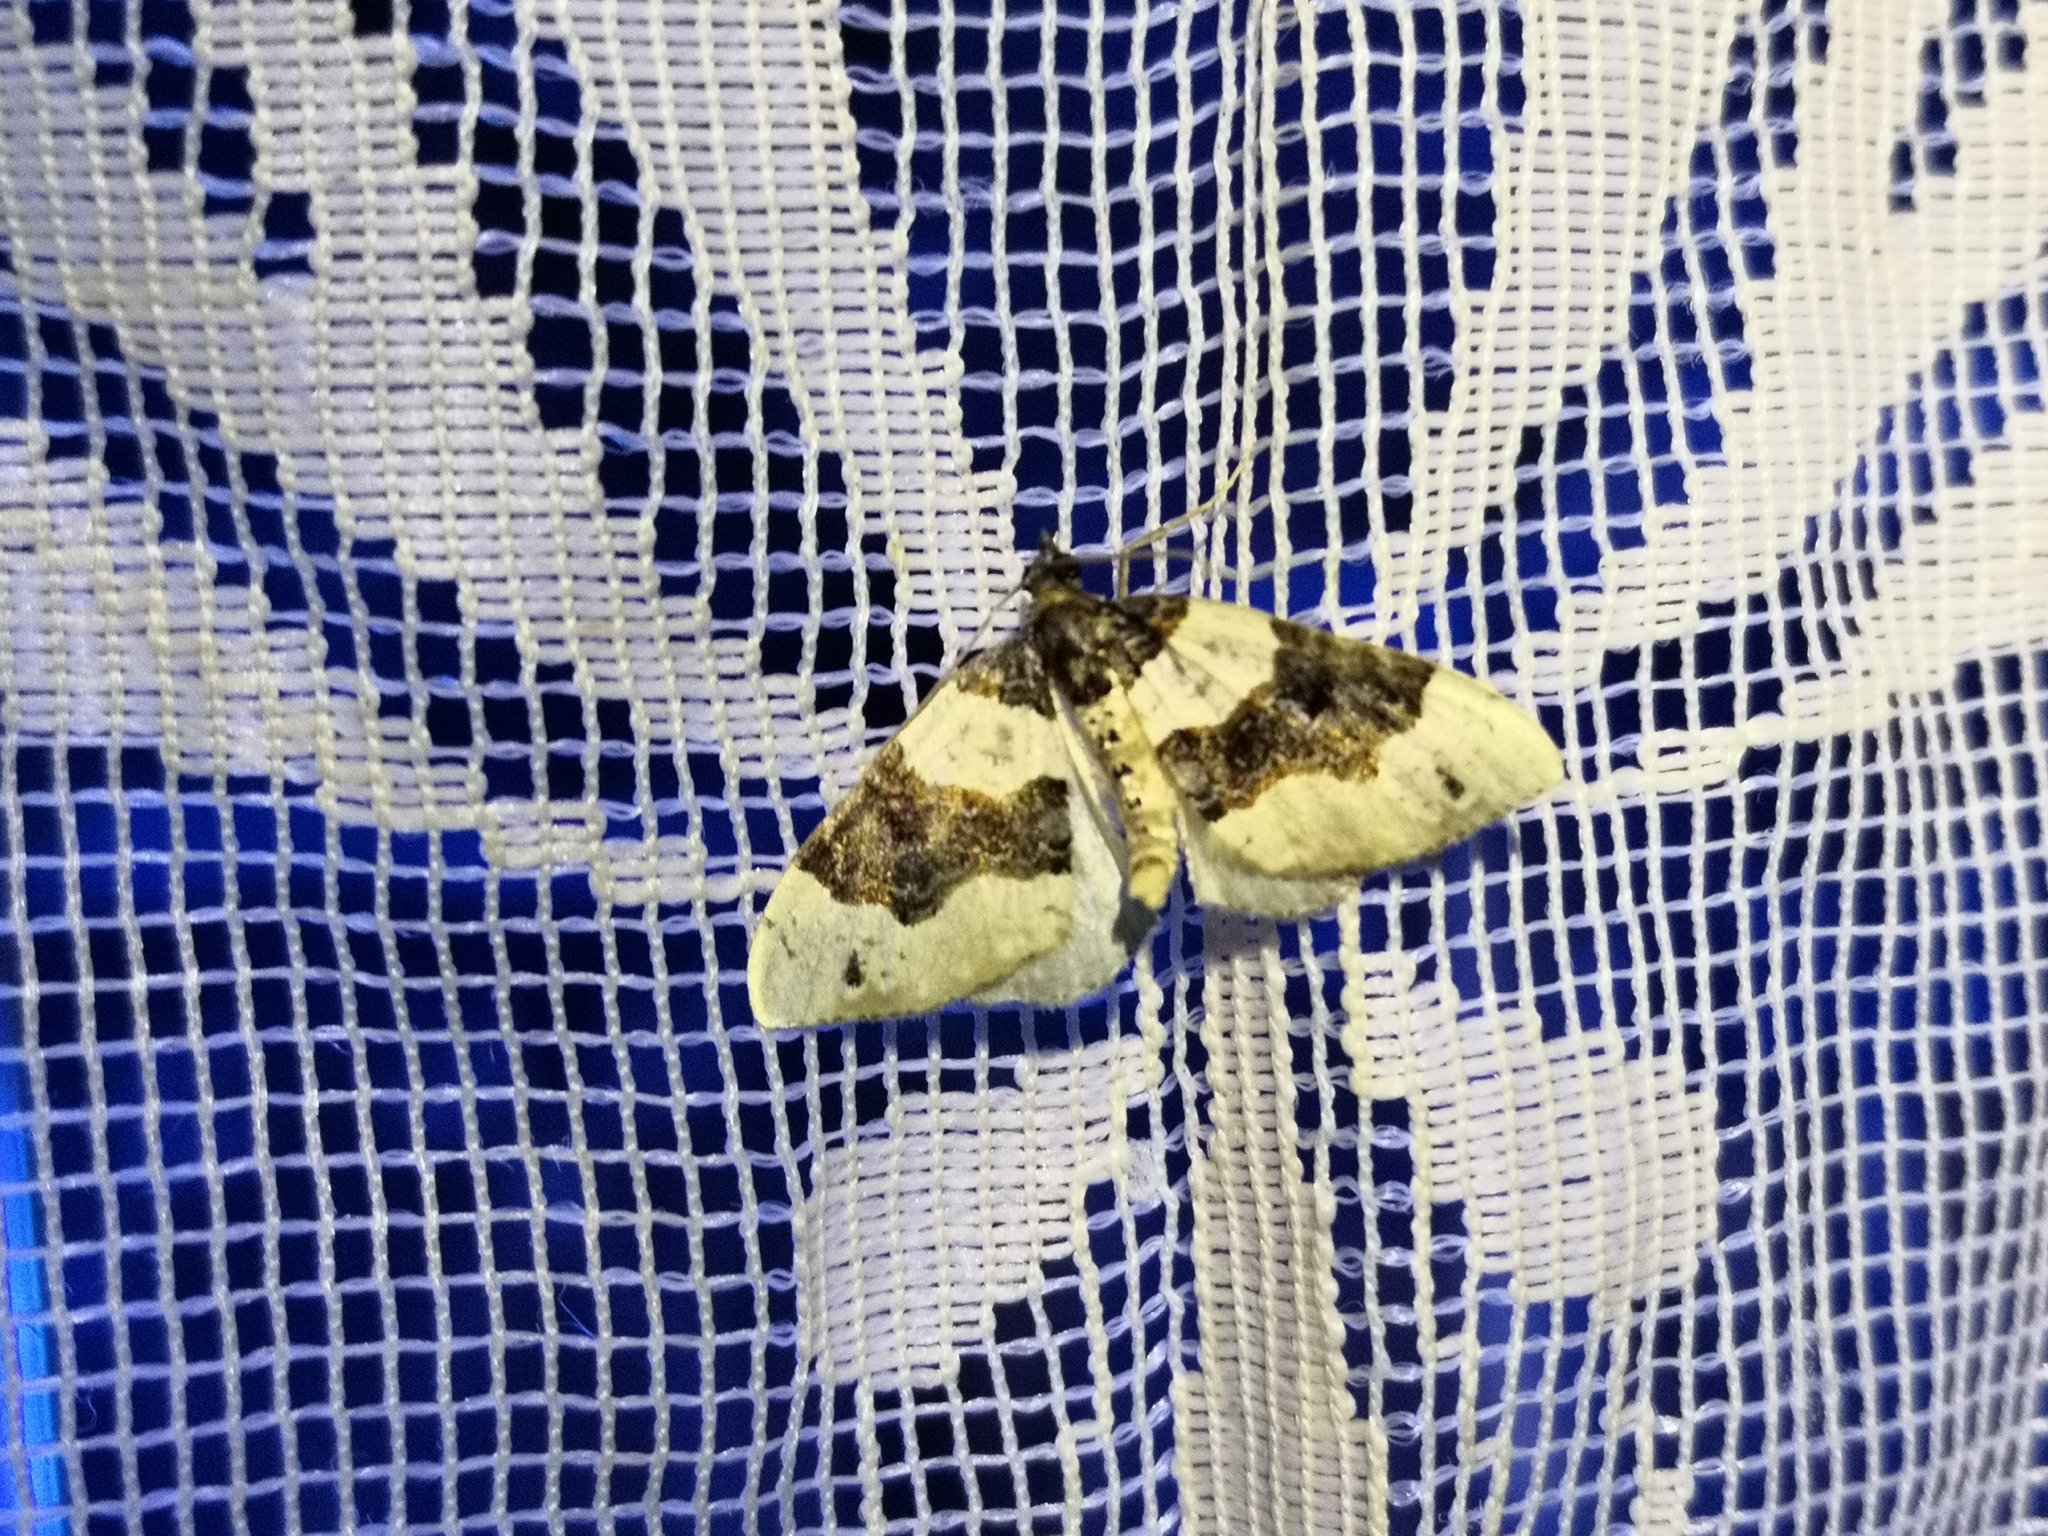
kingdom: Animalia
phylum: Arthropoda
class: Insecta
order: Lepidoptera
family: Geometridae
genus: Cosmorhoe
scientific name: Cosmorhoe ocellata
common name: Purple bar
